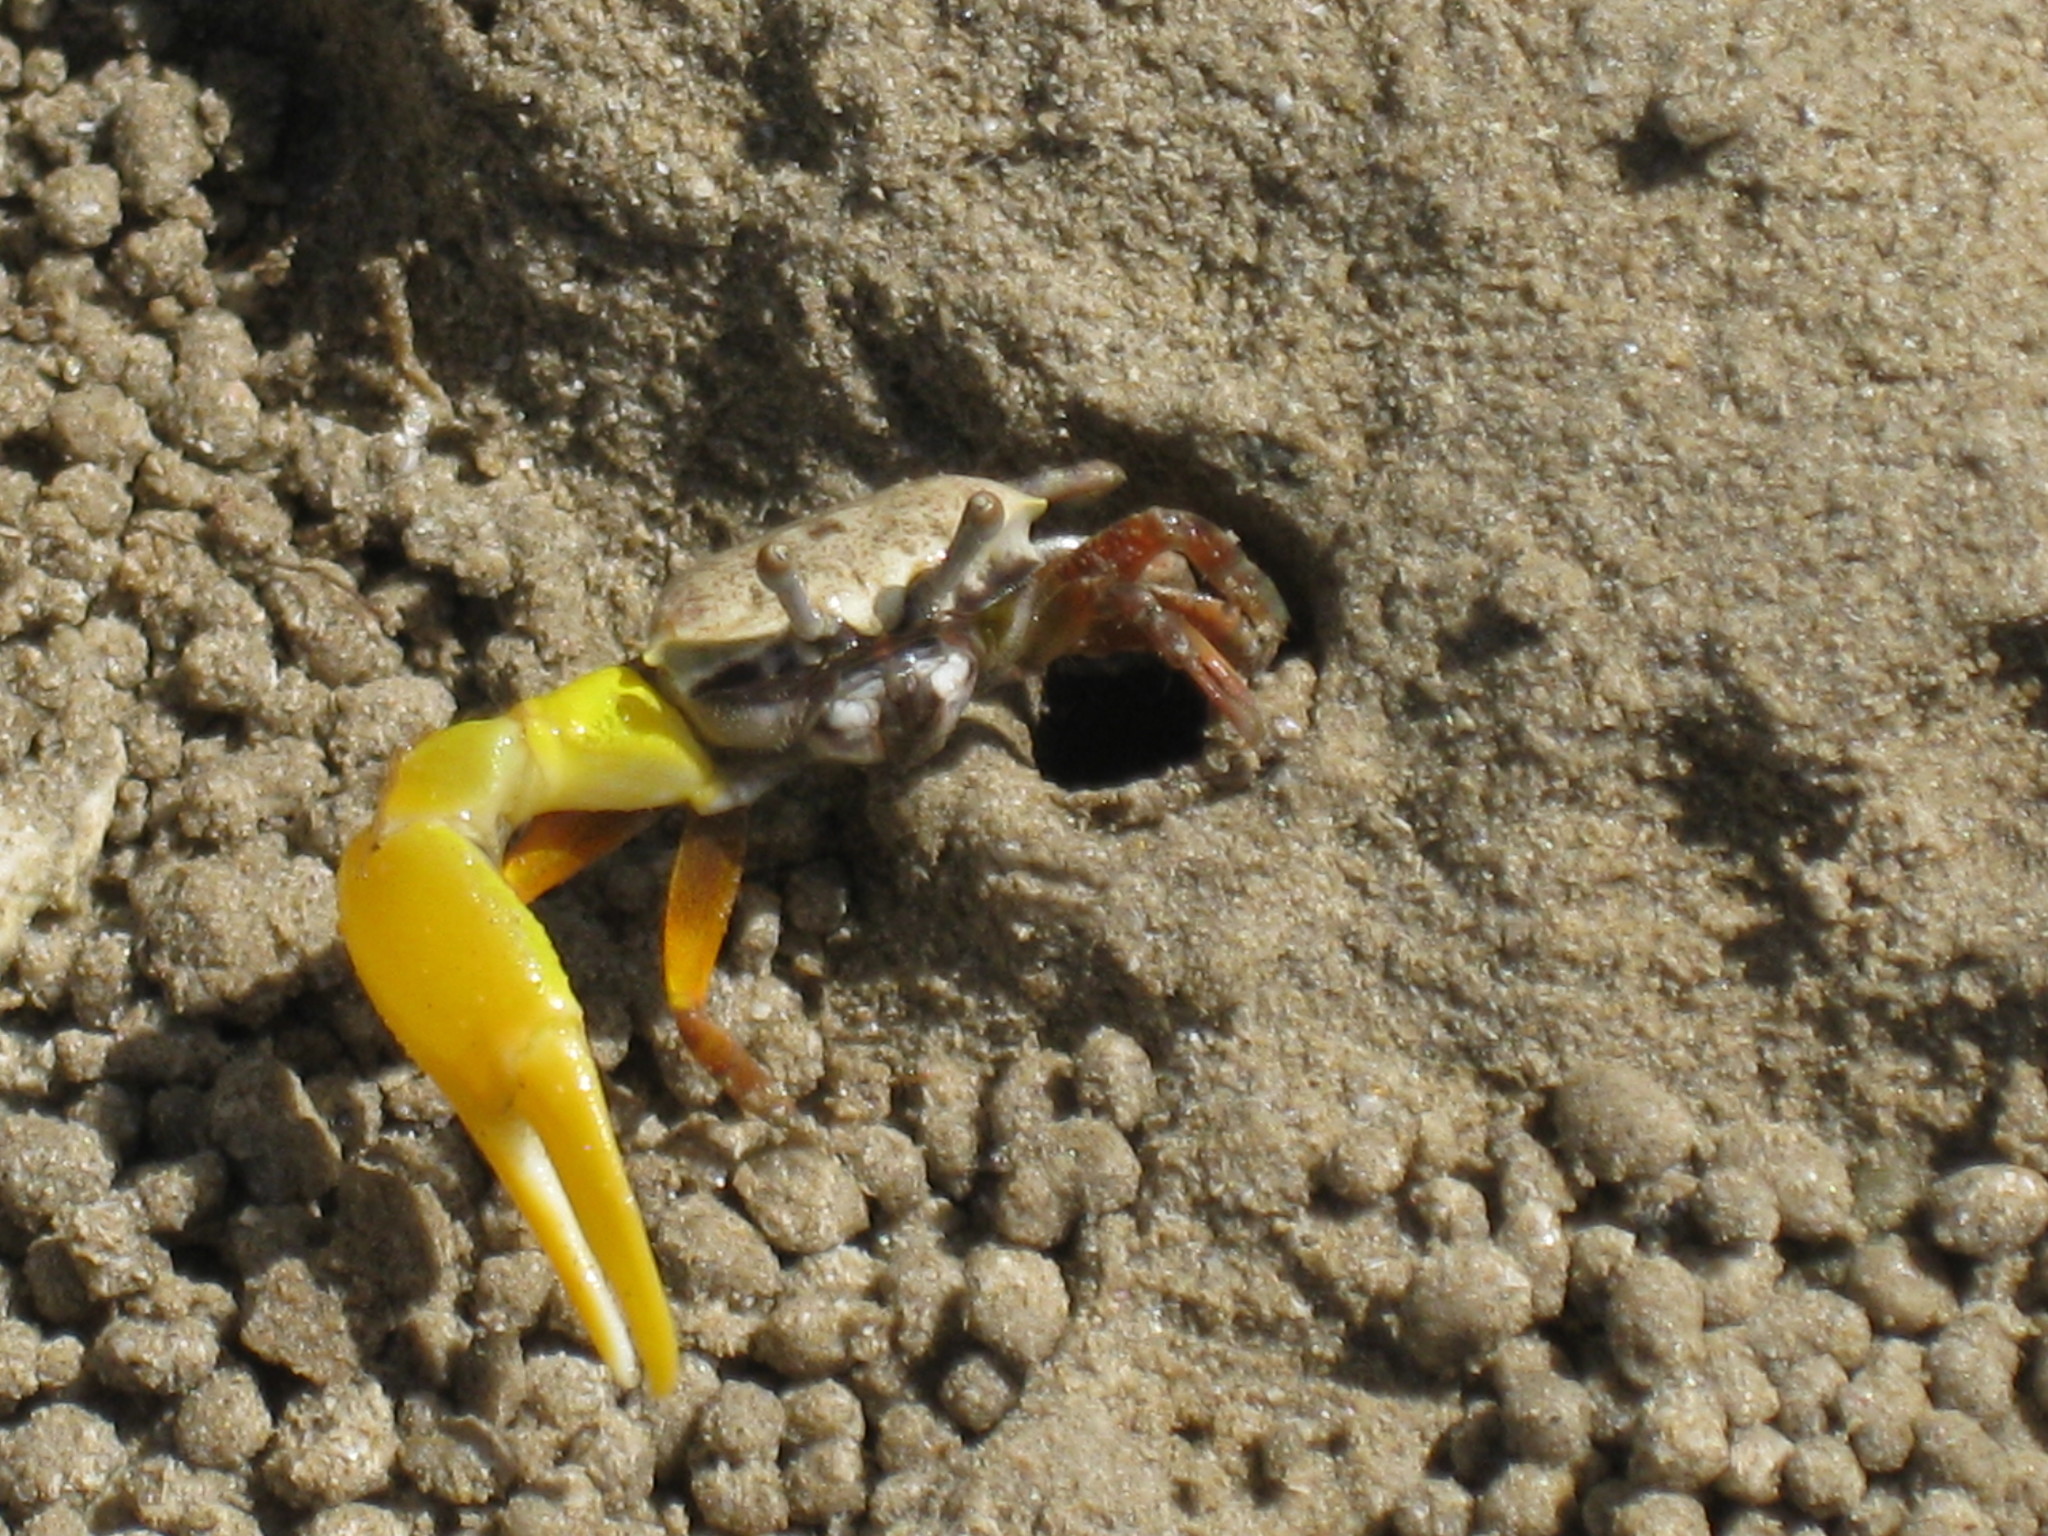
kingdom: Animalia
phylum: Arthropoda
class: Malacostraca
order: Decapoda
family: Ocypodidae
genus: Austruca
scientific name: Austruca mjobergi
